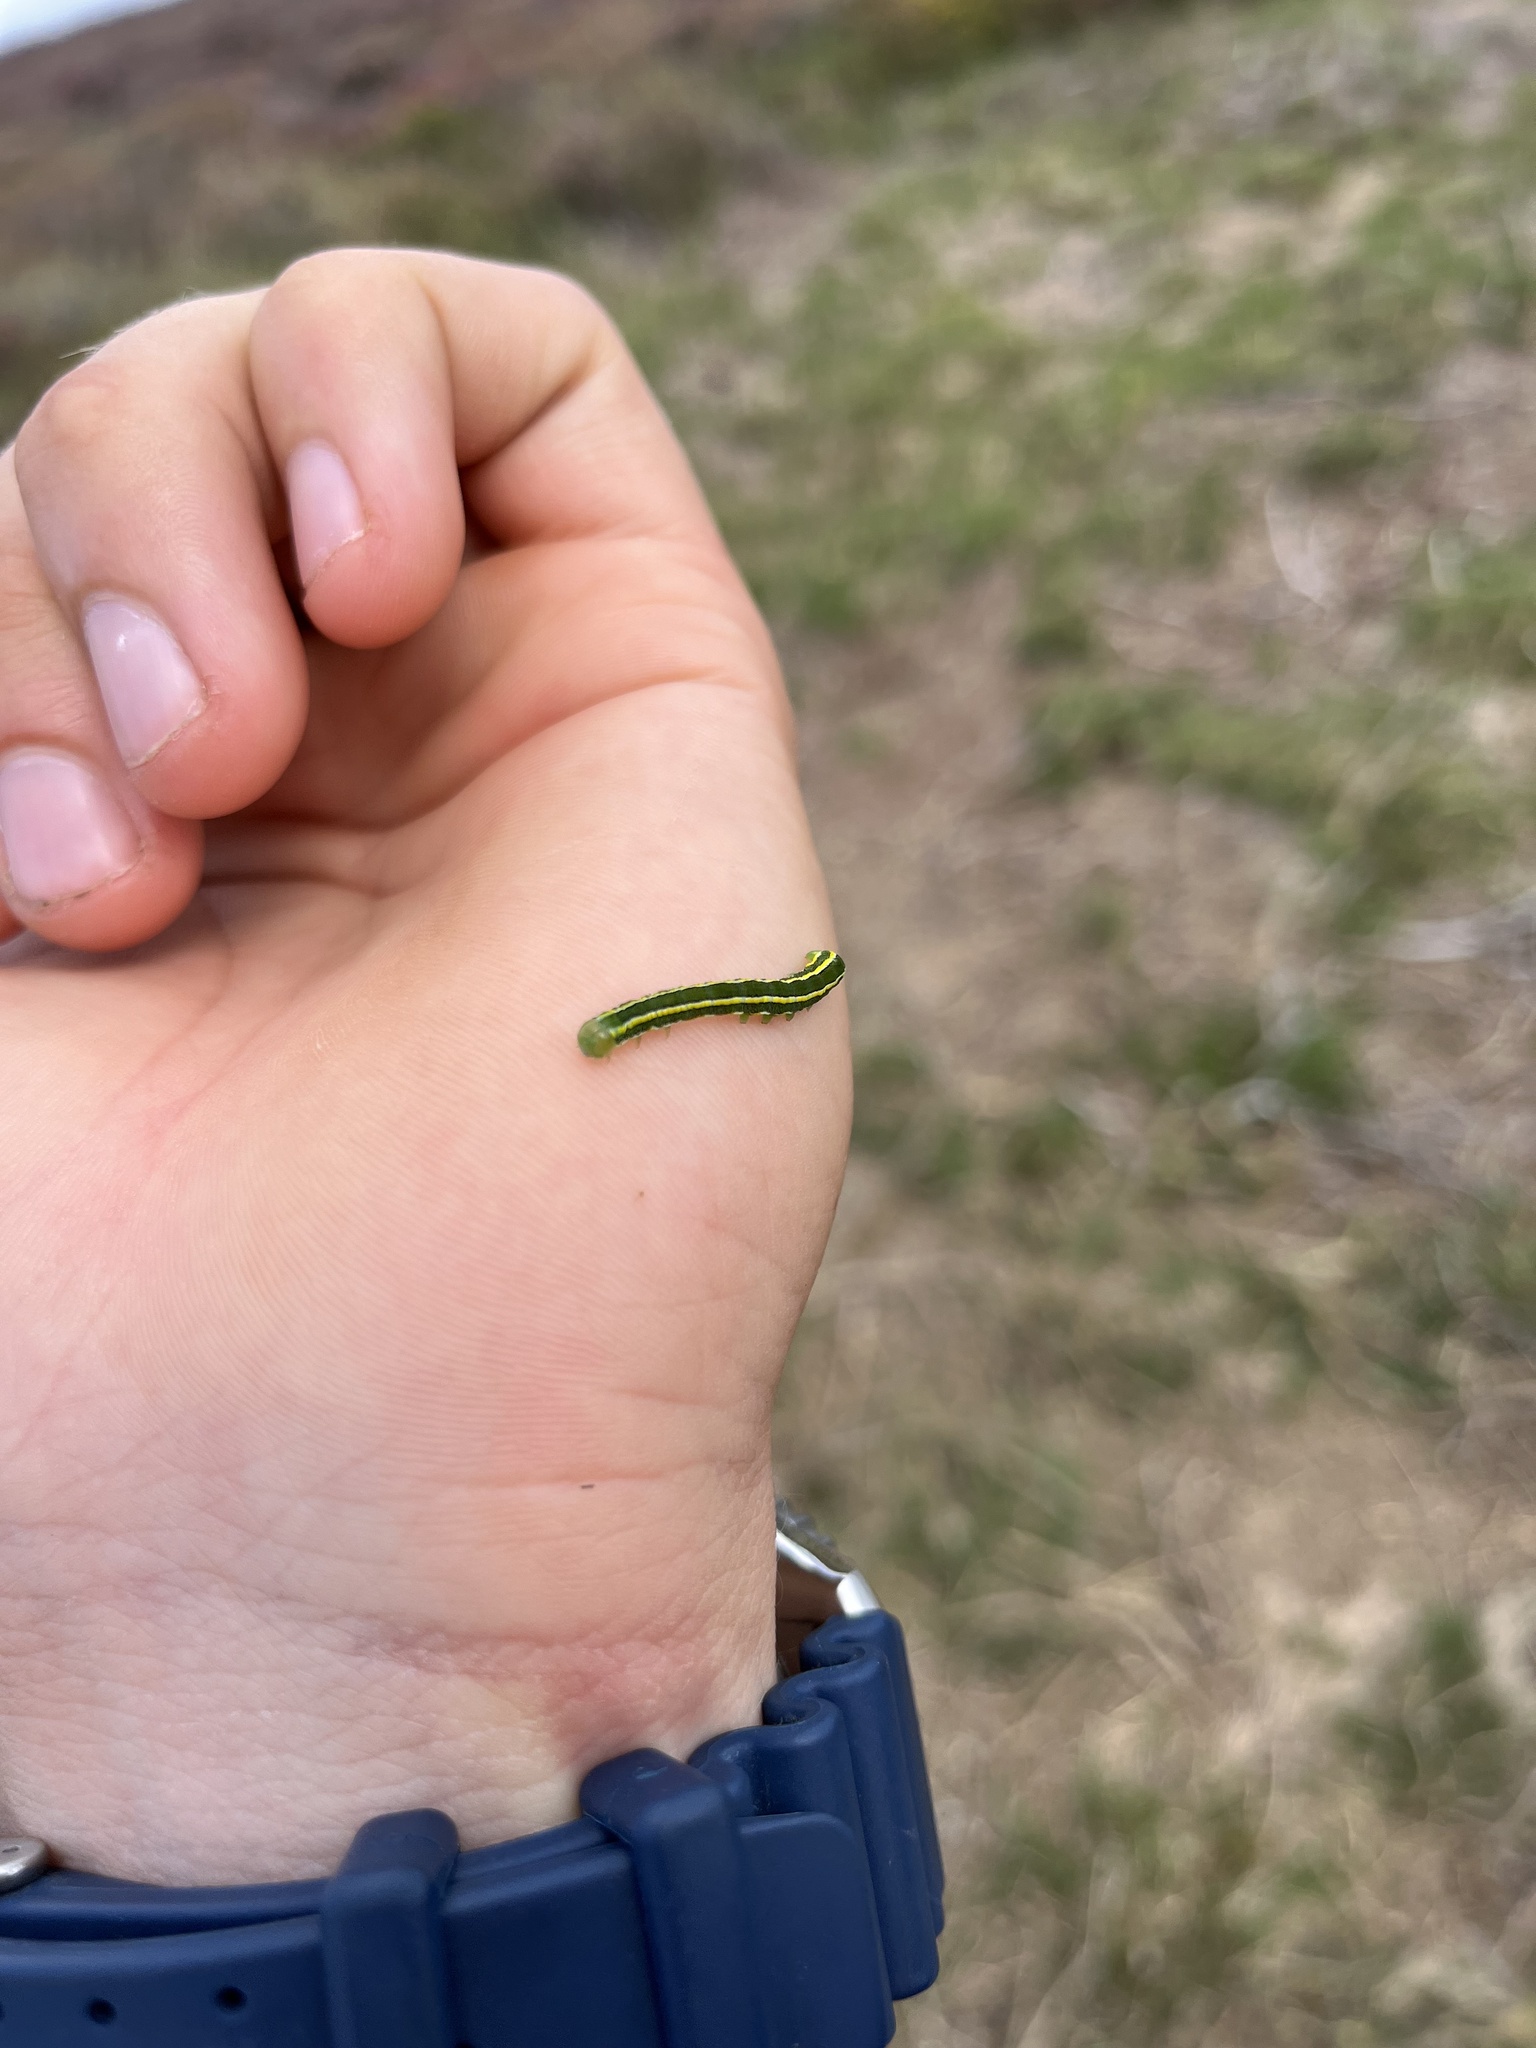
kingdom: Animalia
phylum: Arthropoda
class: Insecta
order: Lepidoptera
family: Noctuidae
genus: Ceramica
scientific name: Ceramica pisi
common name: Broom moth
